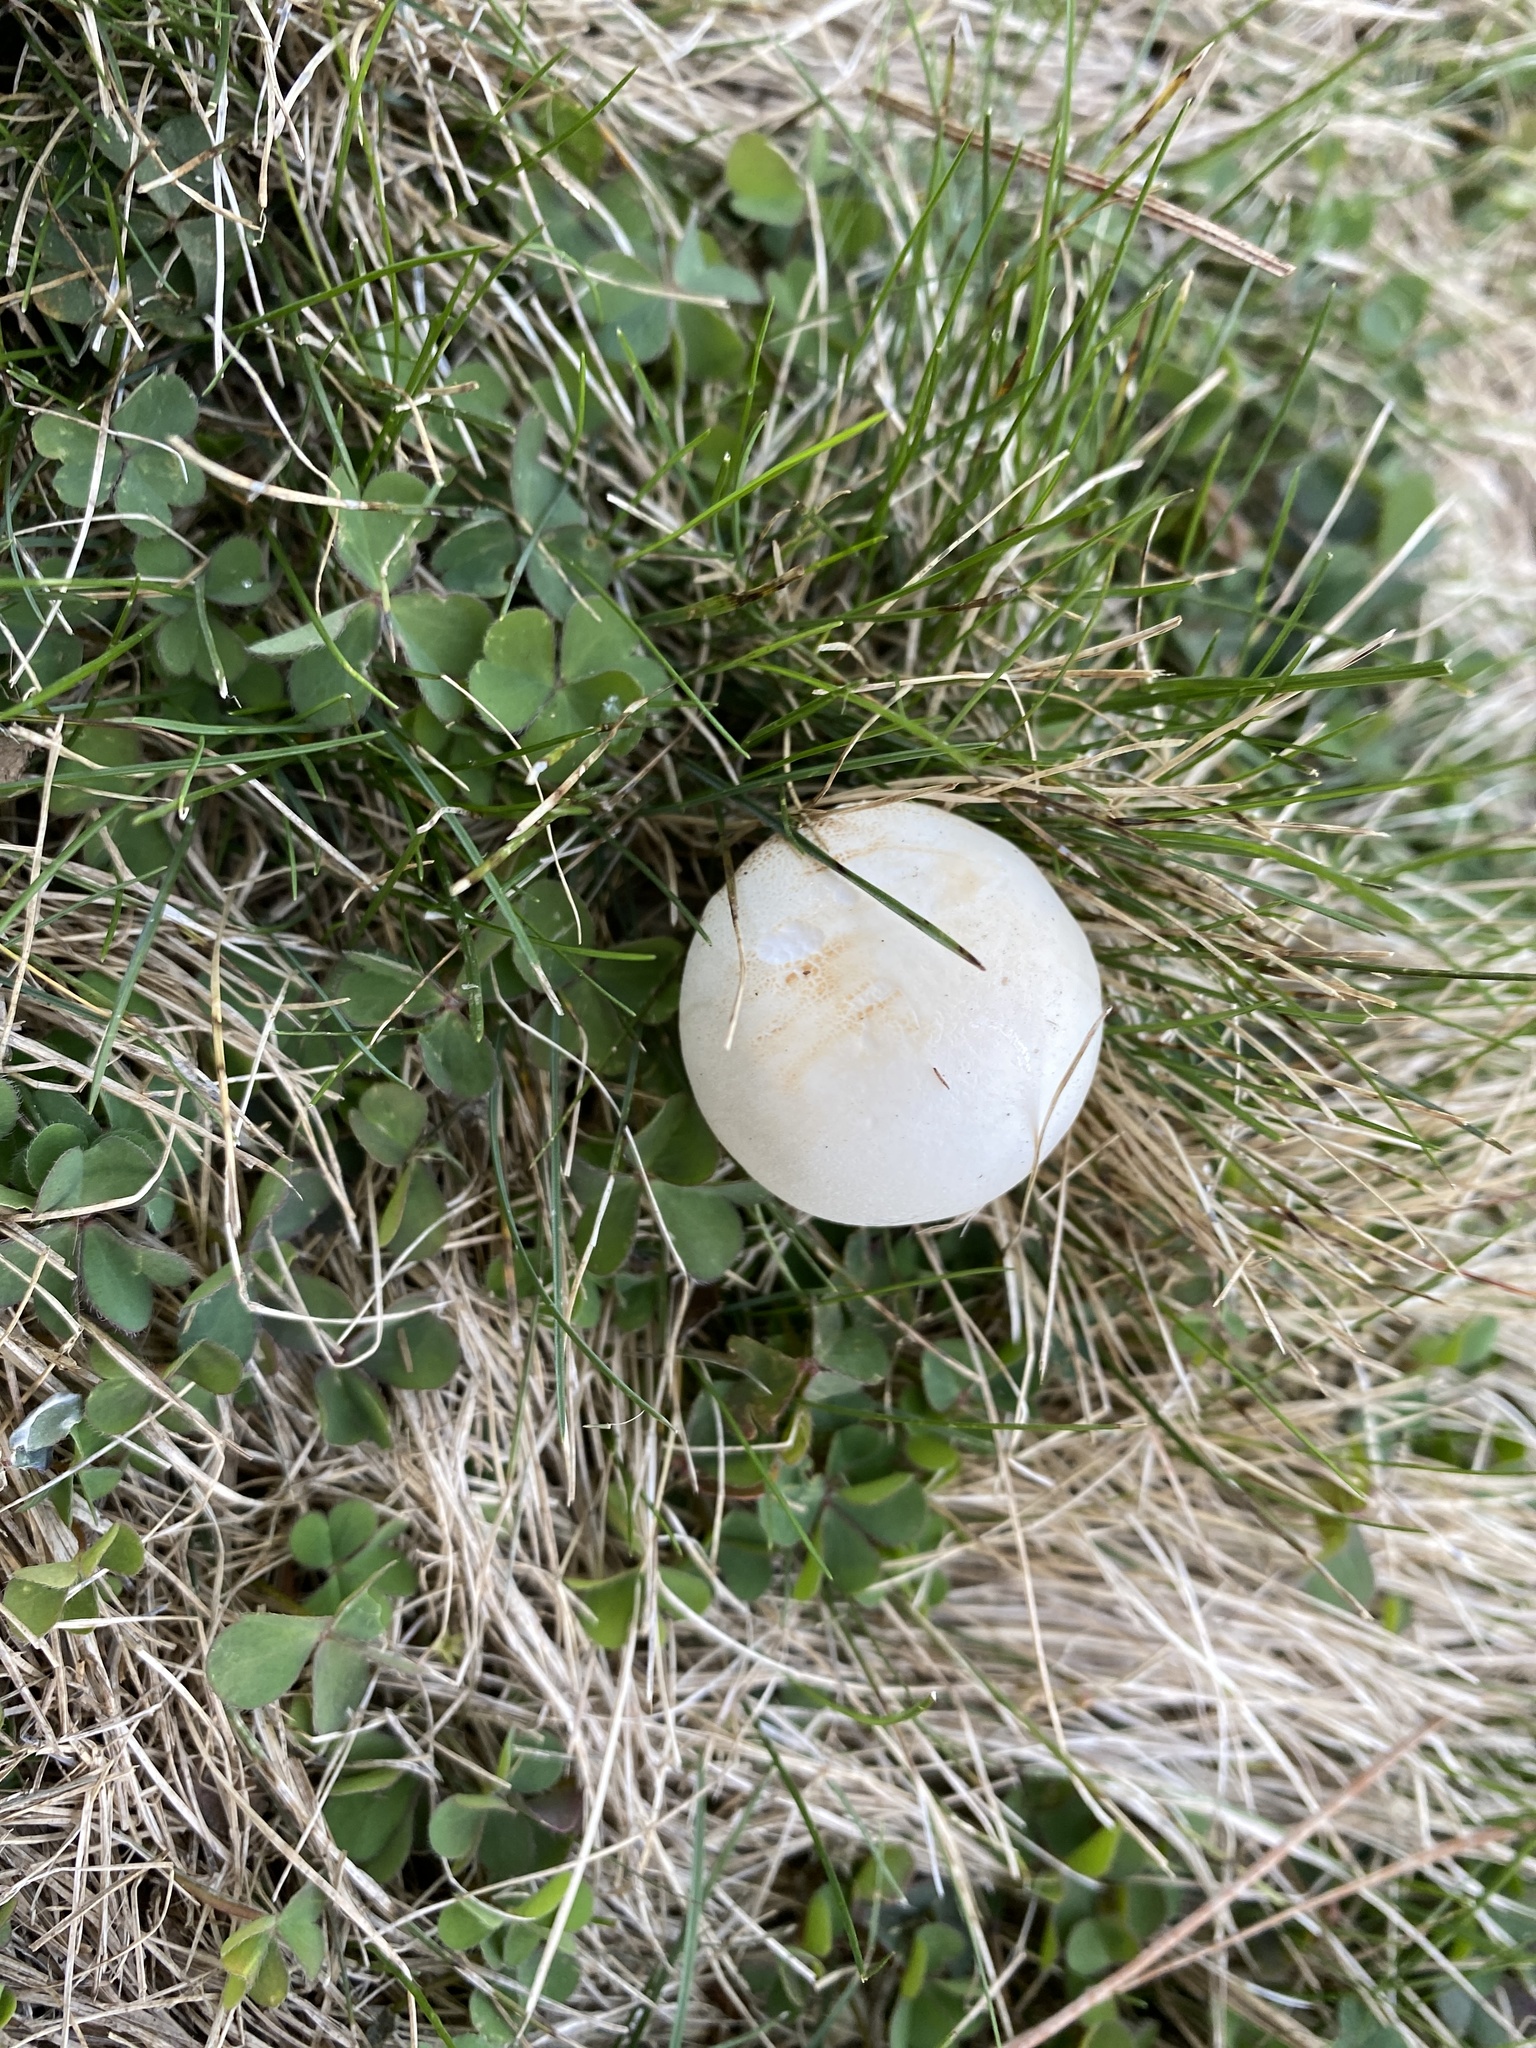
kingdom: Fungi
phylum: Basidiomycota
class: Agaricomycetes
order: Agaricales
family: Agaricaceae
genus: Leucoagaricus
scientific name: Leucoagaricus leucothites
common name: White dapperling
